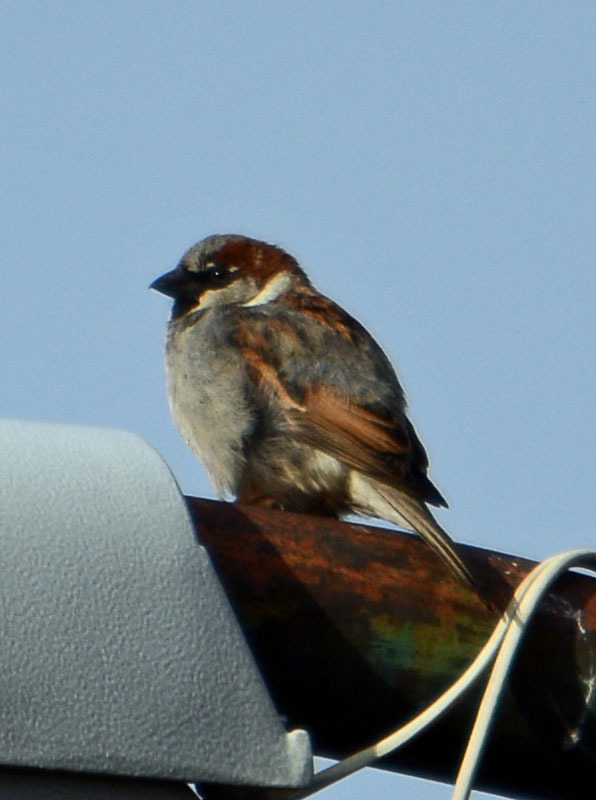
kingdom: Animalia
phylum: Chordata
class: Aves
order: Passeriformes
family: Passeridae
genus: Passer
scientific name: Passer domesticus
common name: House sparrow
